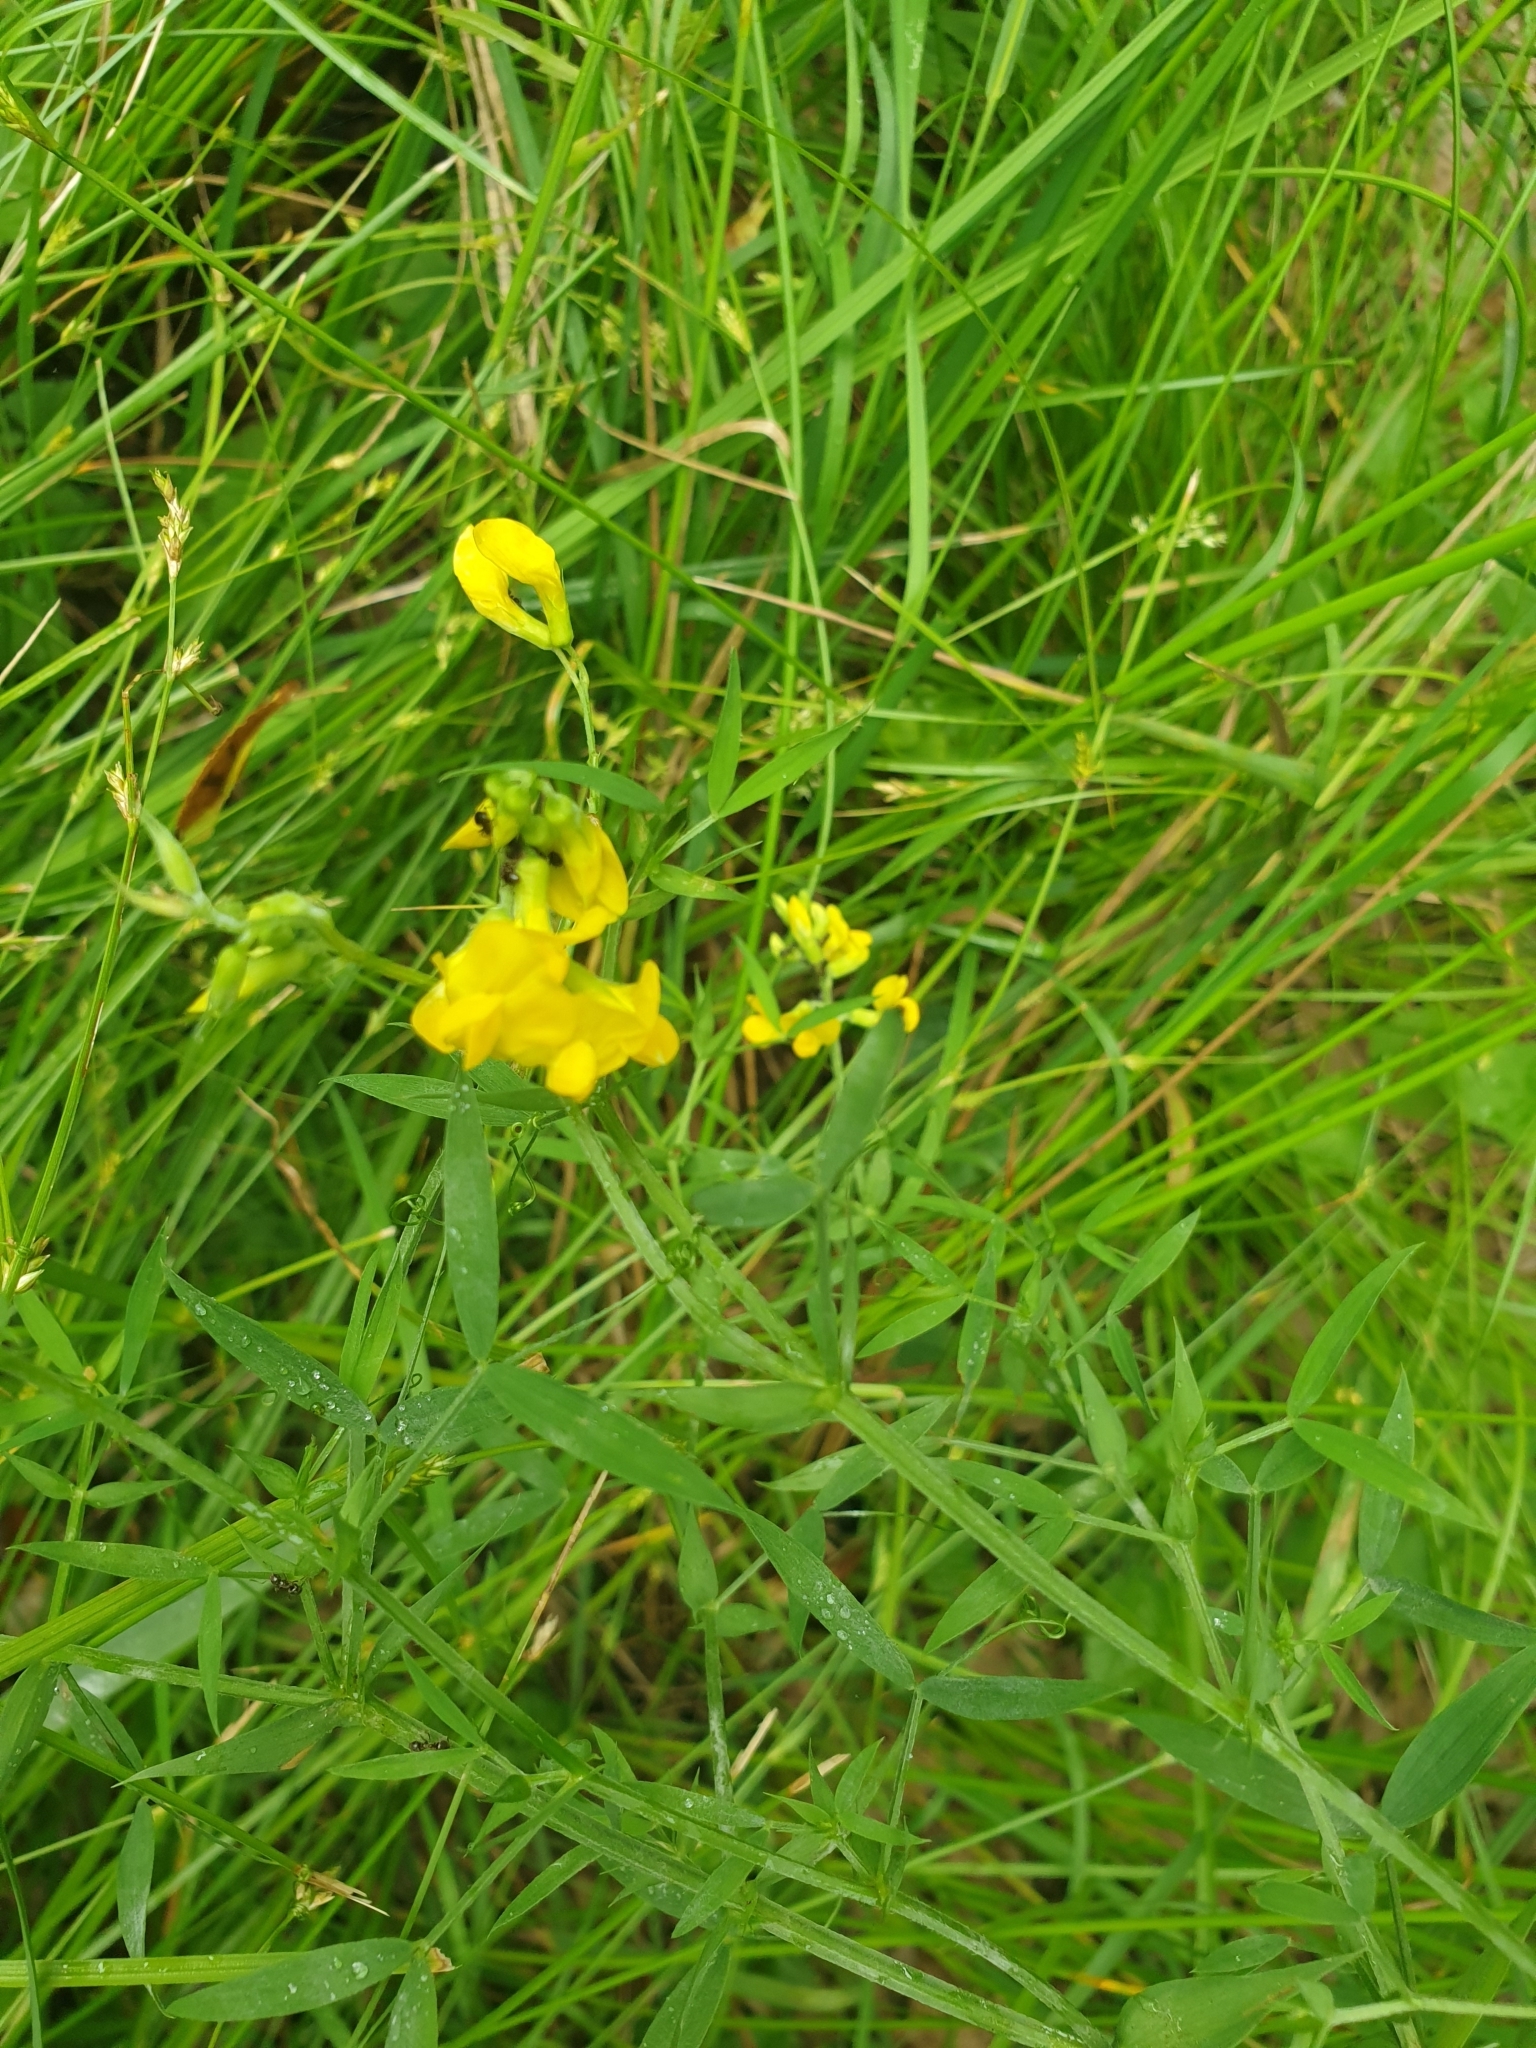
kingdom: Plantae
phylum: Tracheophyta
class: Magnoliopsida
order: Fabales
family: Fabaceae
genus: Lathyrus
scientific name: Lathyrus pratensis
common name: Meadow vetchling
